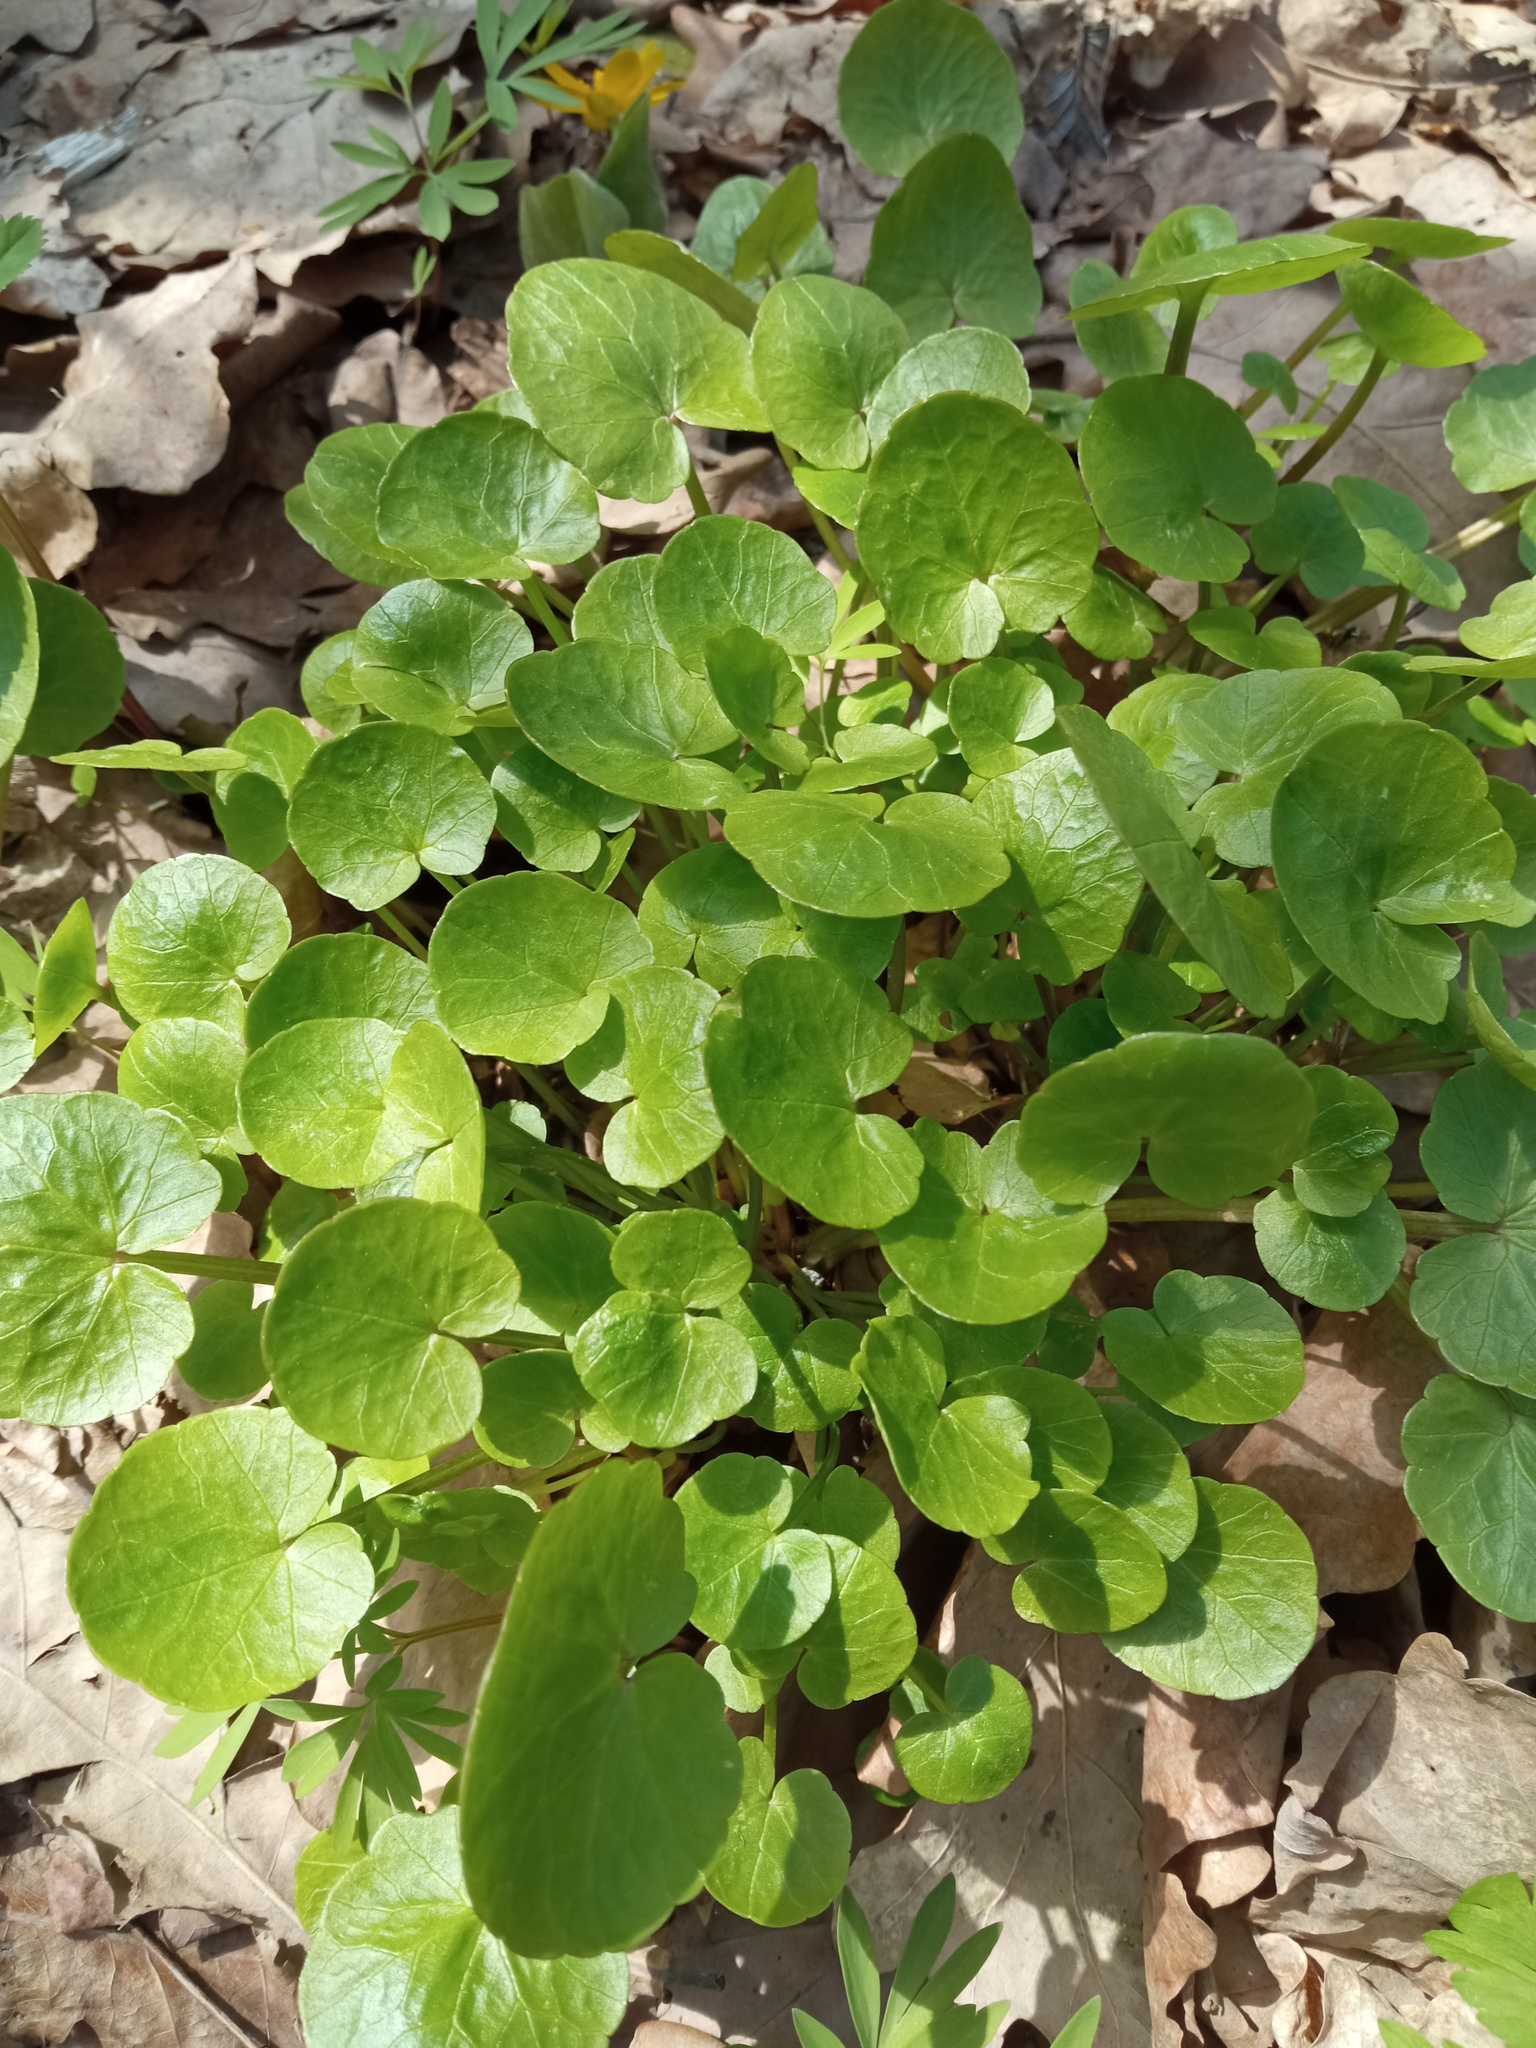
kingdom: Plantae
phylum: Tracheophyta
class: Magnoliopsida
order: Ranunculales
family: Ranunculaceae
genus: Ficaria
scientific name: Ficaria verna
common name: Lesser celandine
